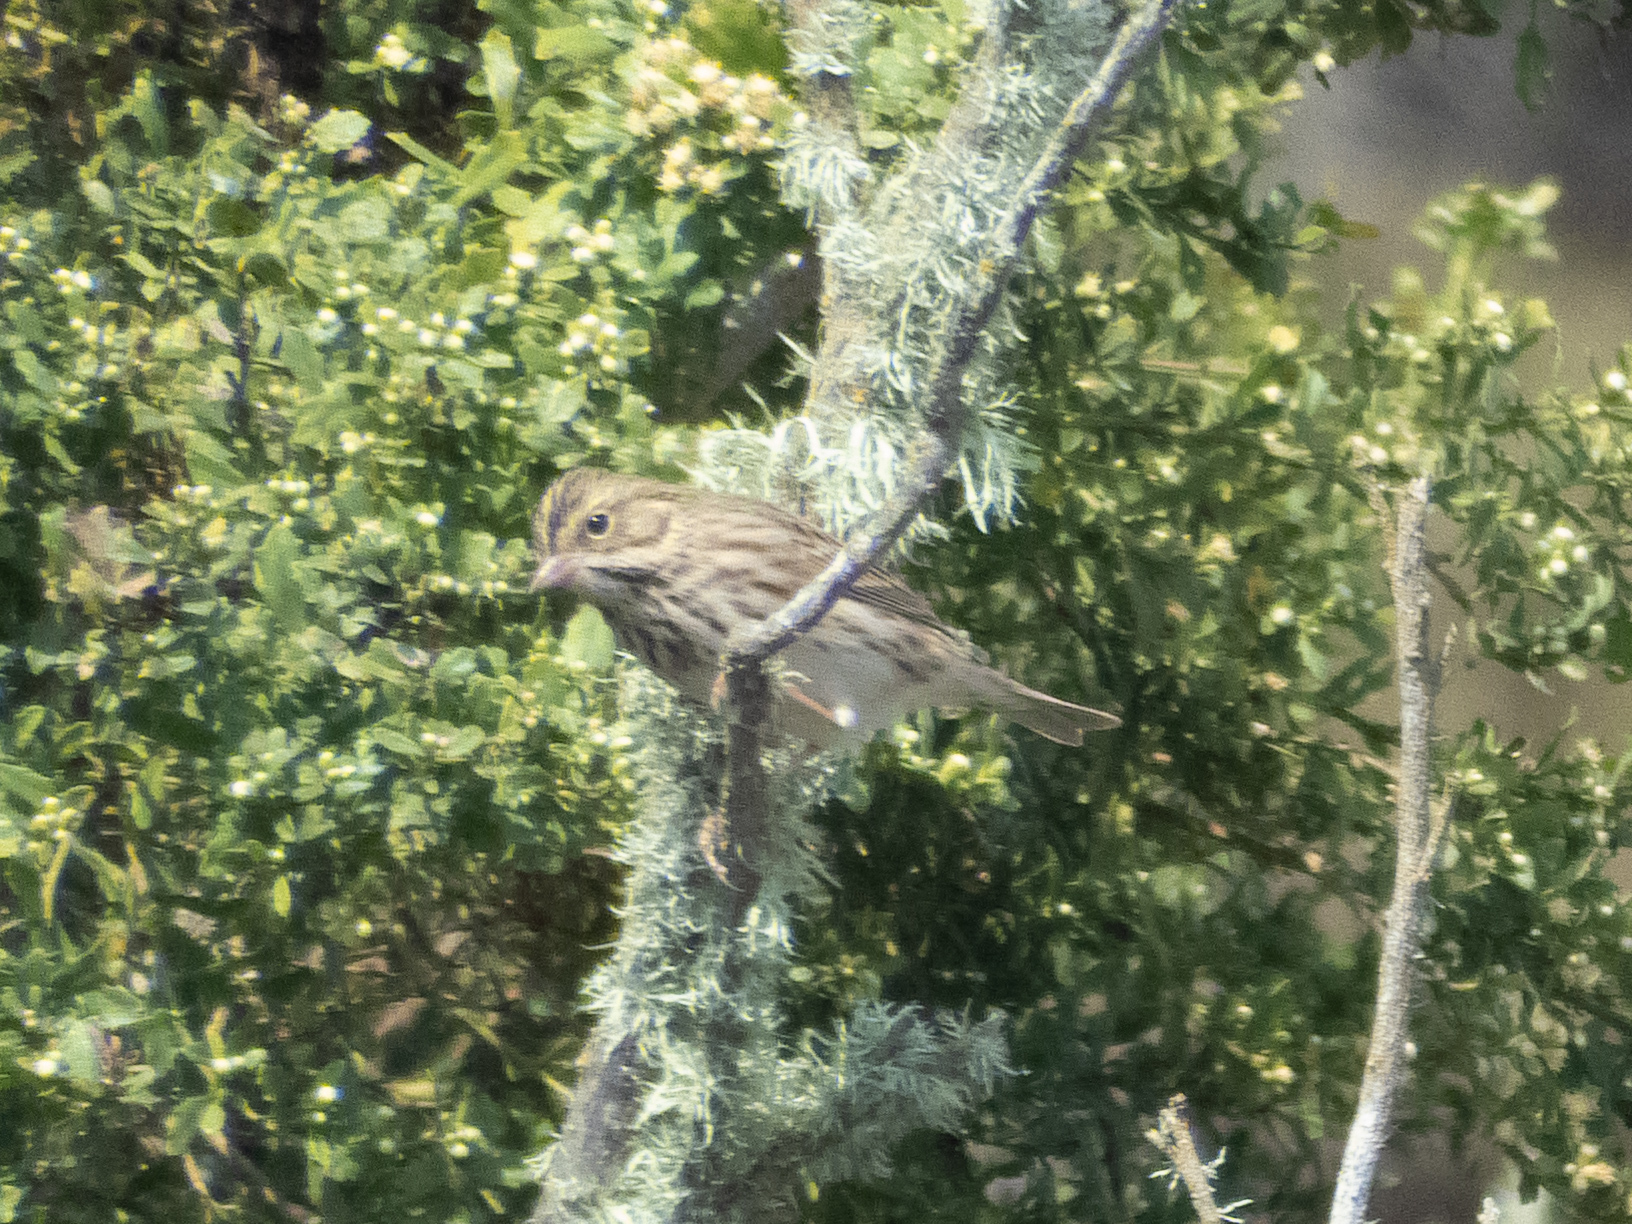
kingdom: Animalia
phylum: Chordata
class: Aves
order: Passeriformes
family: Passerellidae
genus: Passerculus
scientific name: Passerculus sandwichensis
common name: Savannah sparrow
